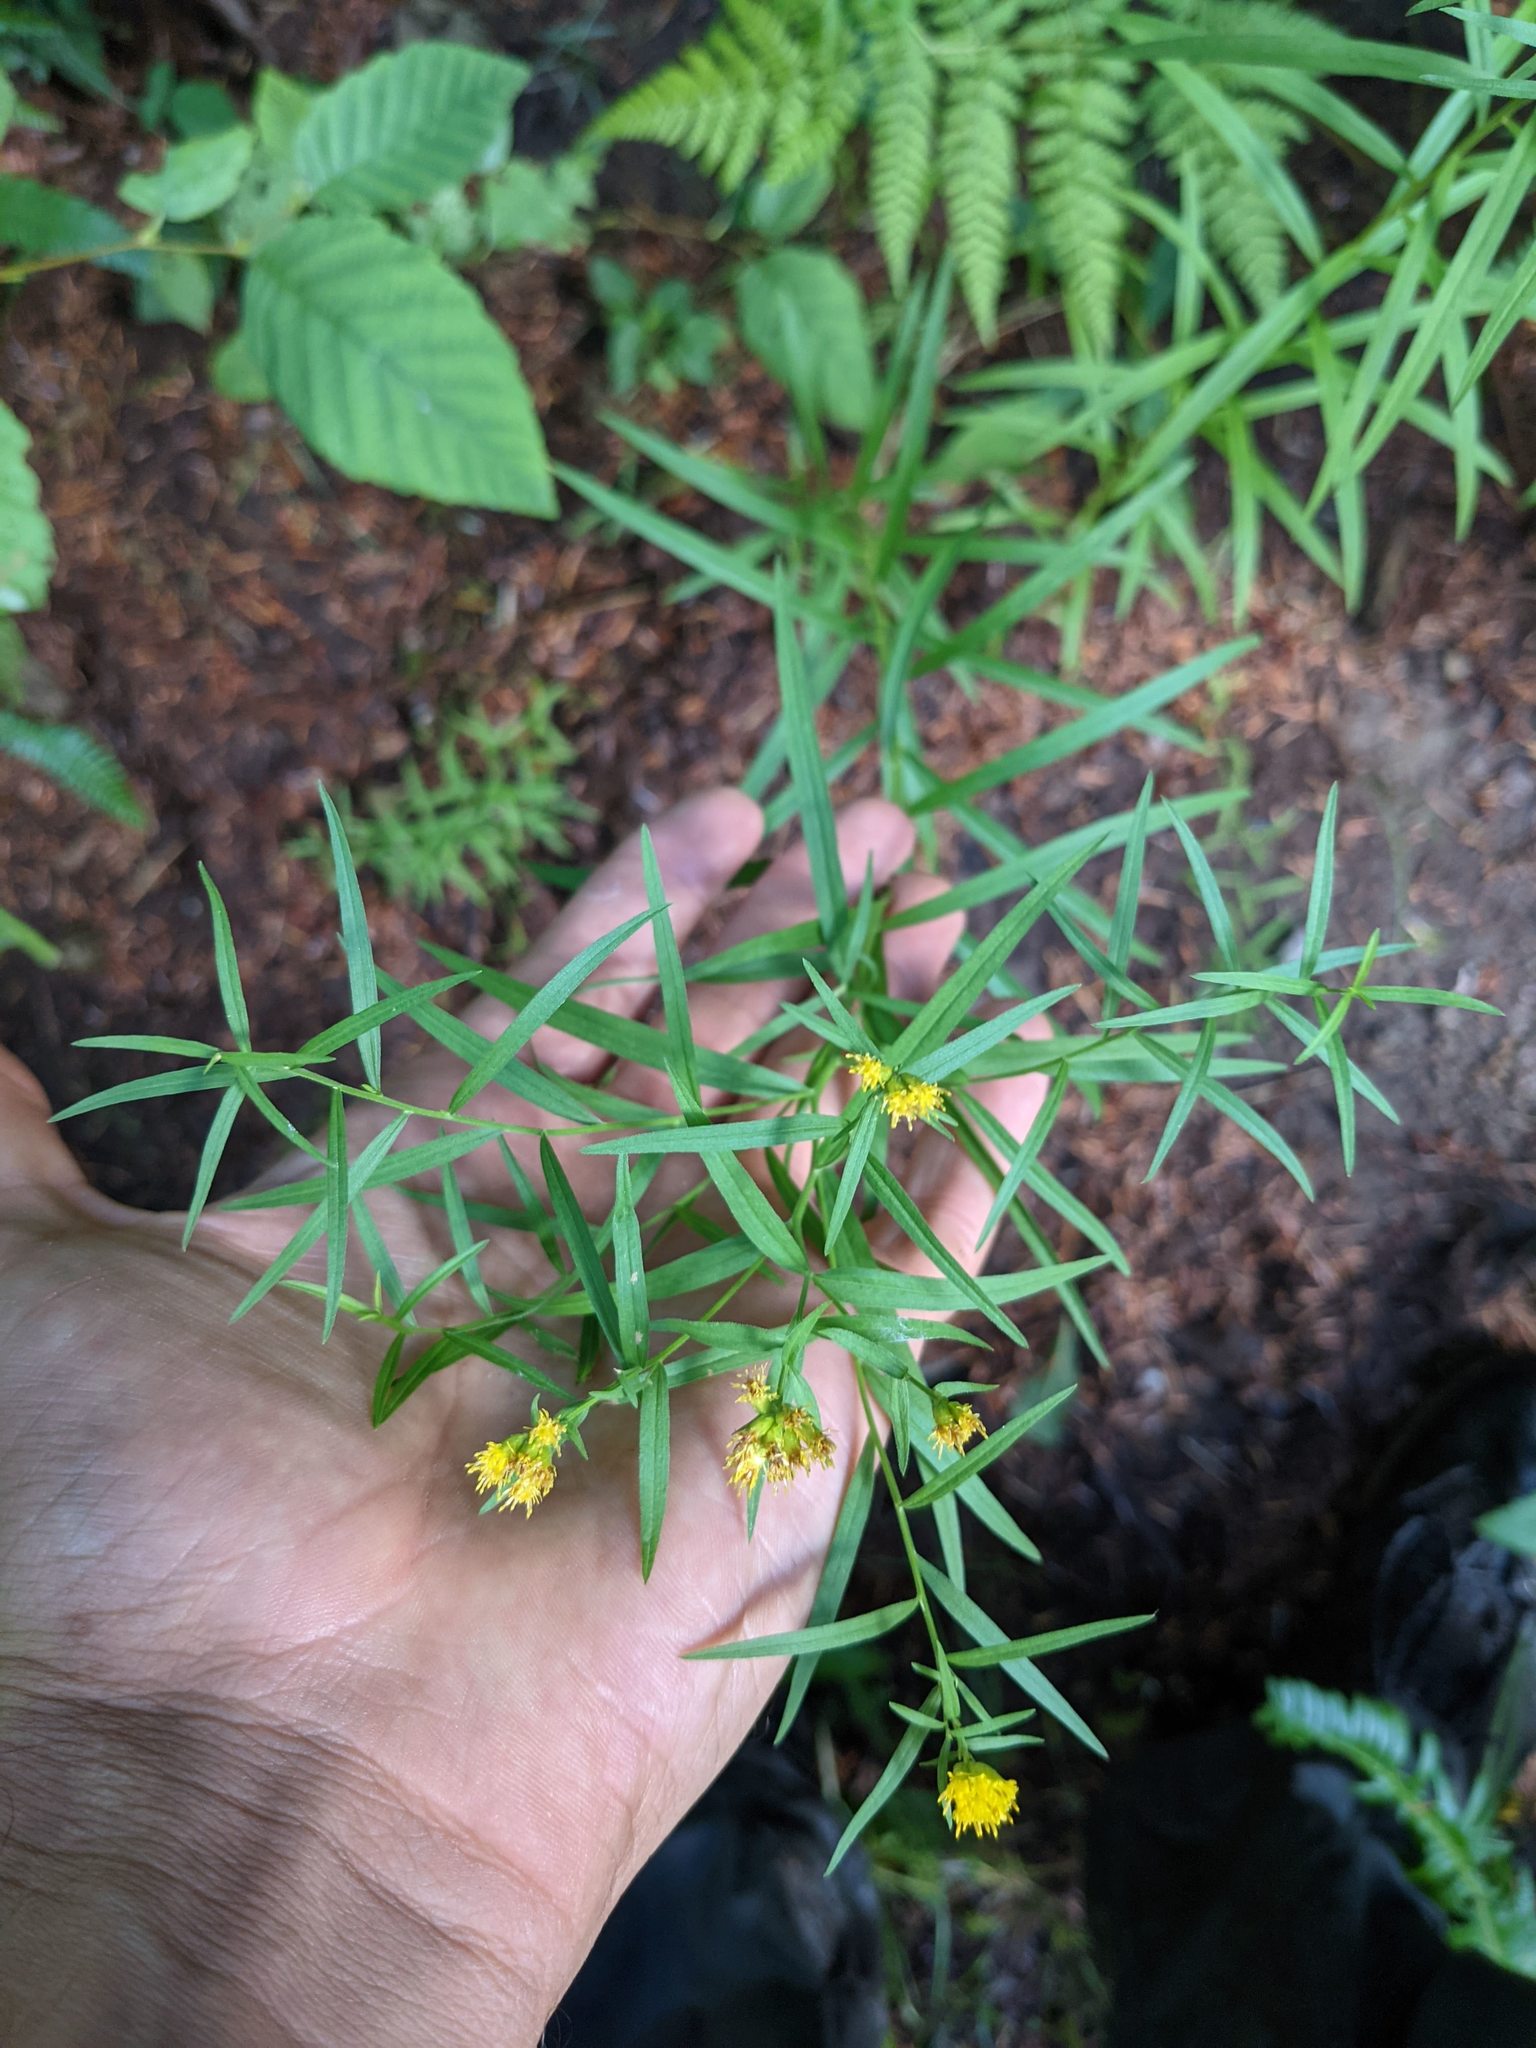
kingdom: Plantae
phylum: Tracheophyta
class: Magnoliopsida
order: Asterales
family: Asteraceae
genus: Euthamia
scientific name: Euthamia graminifolia
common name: Common goldentop
